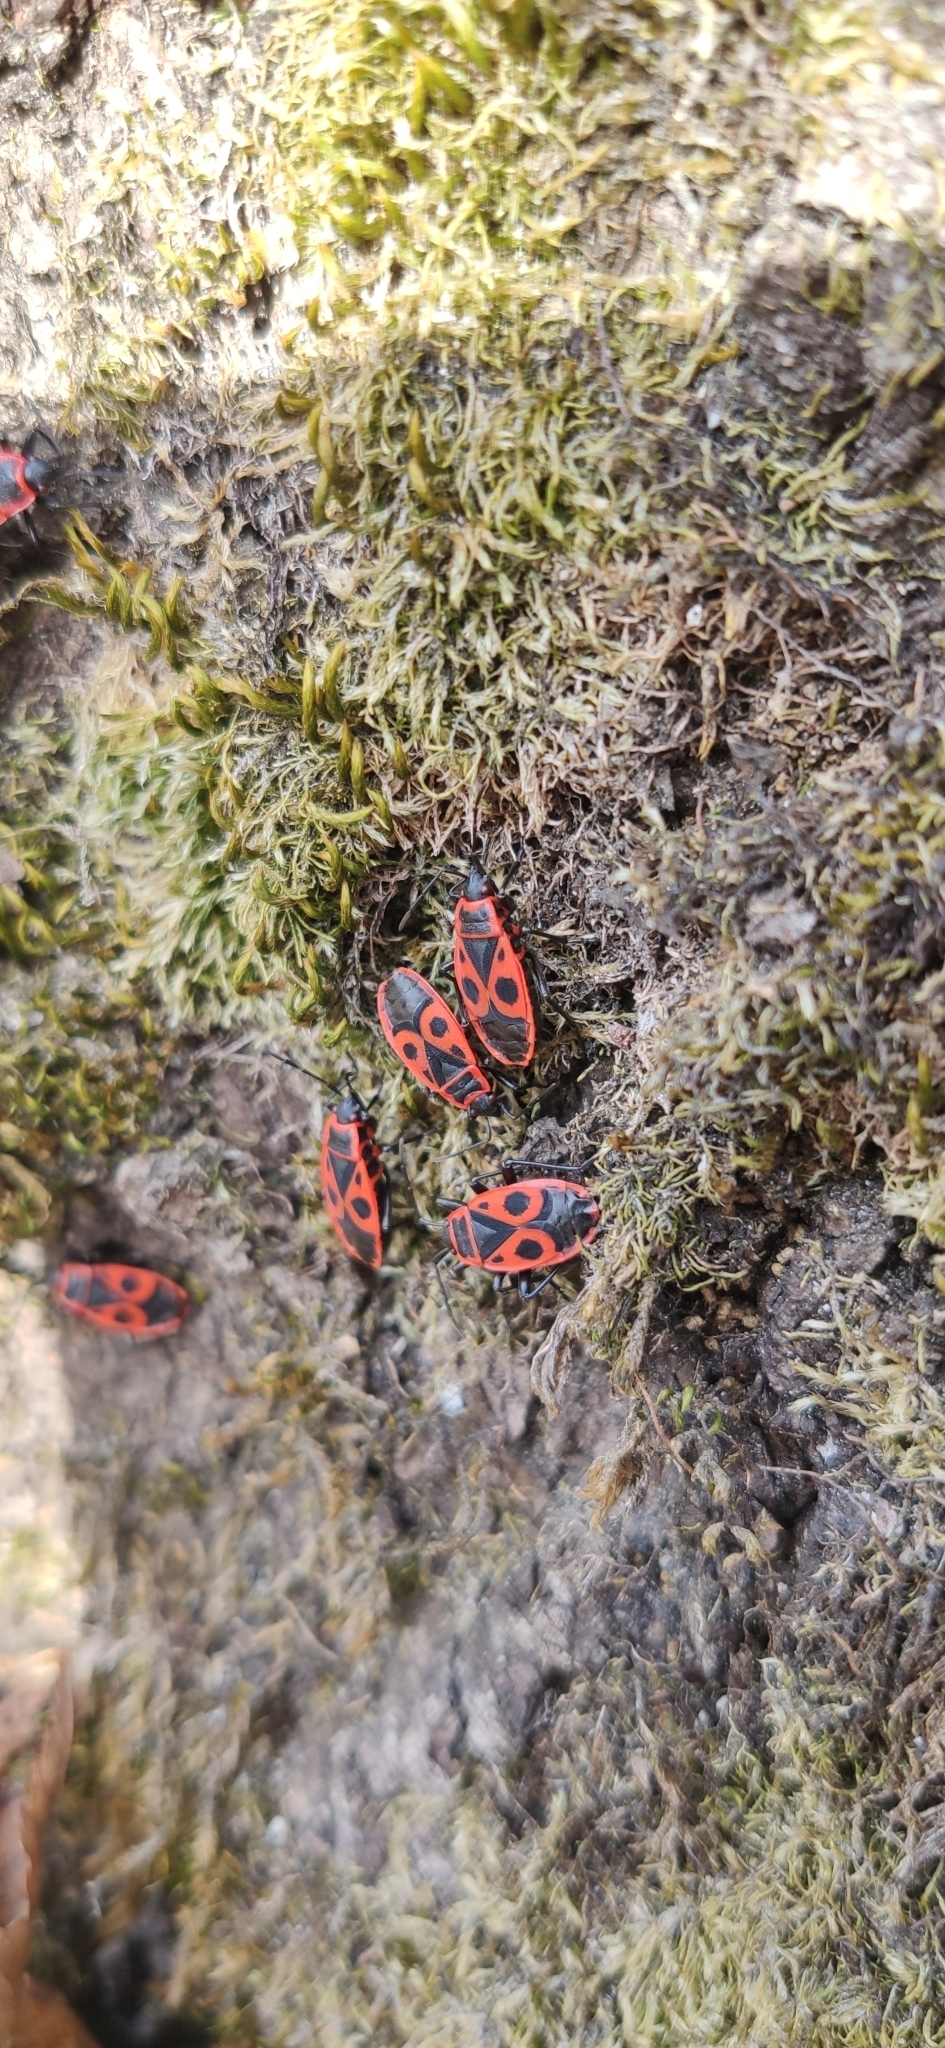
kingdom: Animalia
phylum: Arthropoda
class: Insecta
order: Hemiptera
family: Pyrrhocoridae
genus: Pyrrhocoris
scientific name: Pyrrhocoris apterus
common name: Firebug
